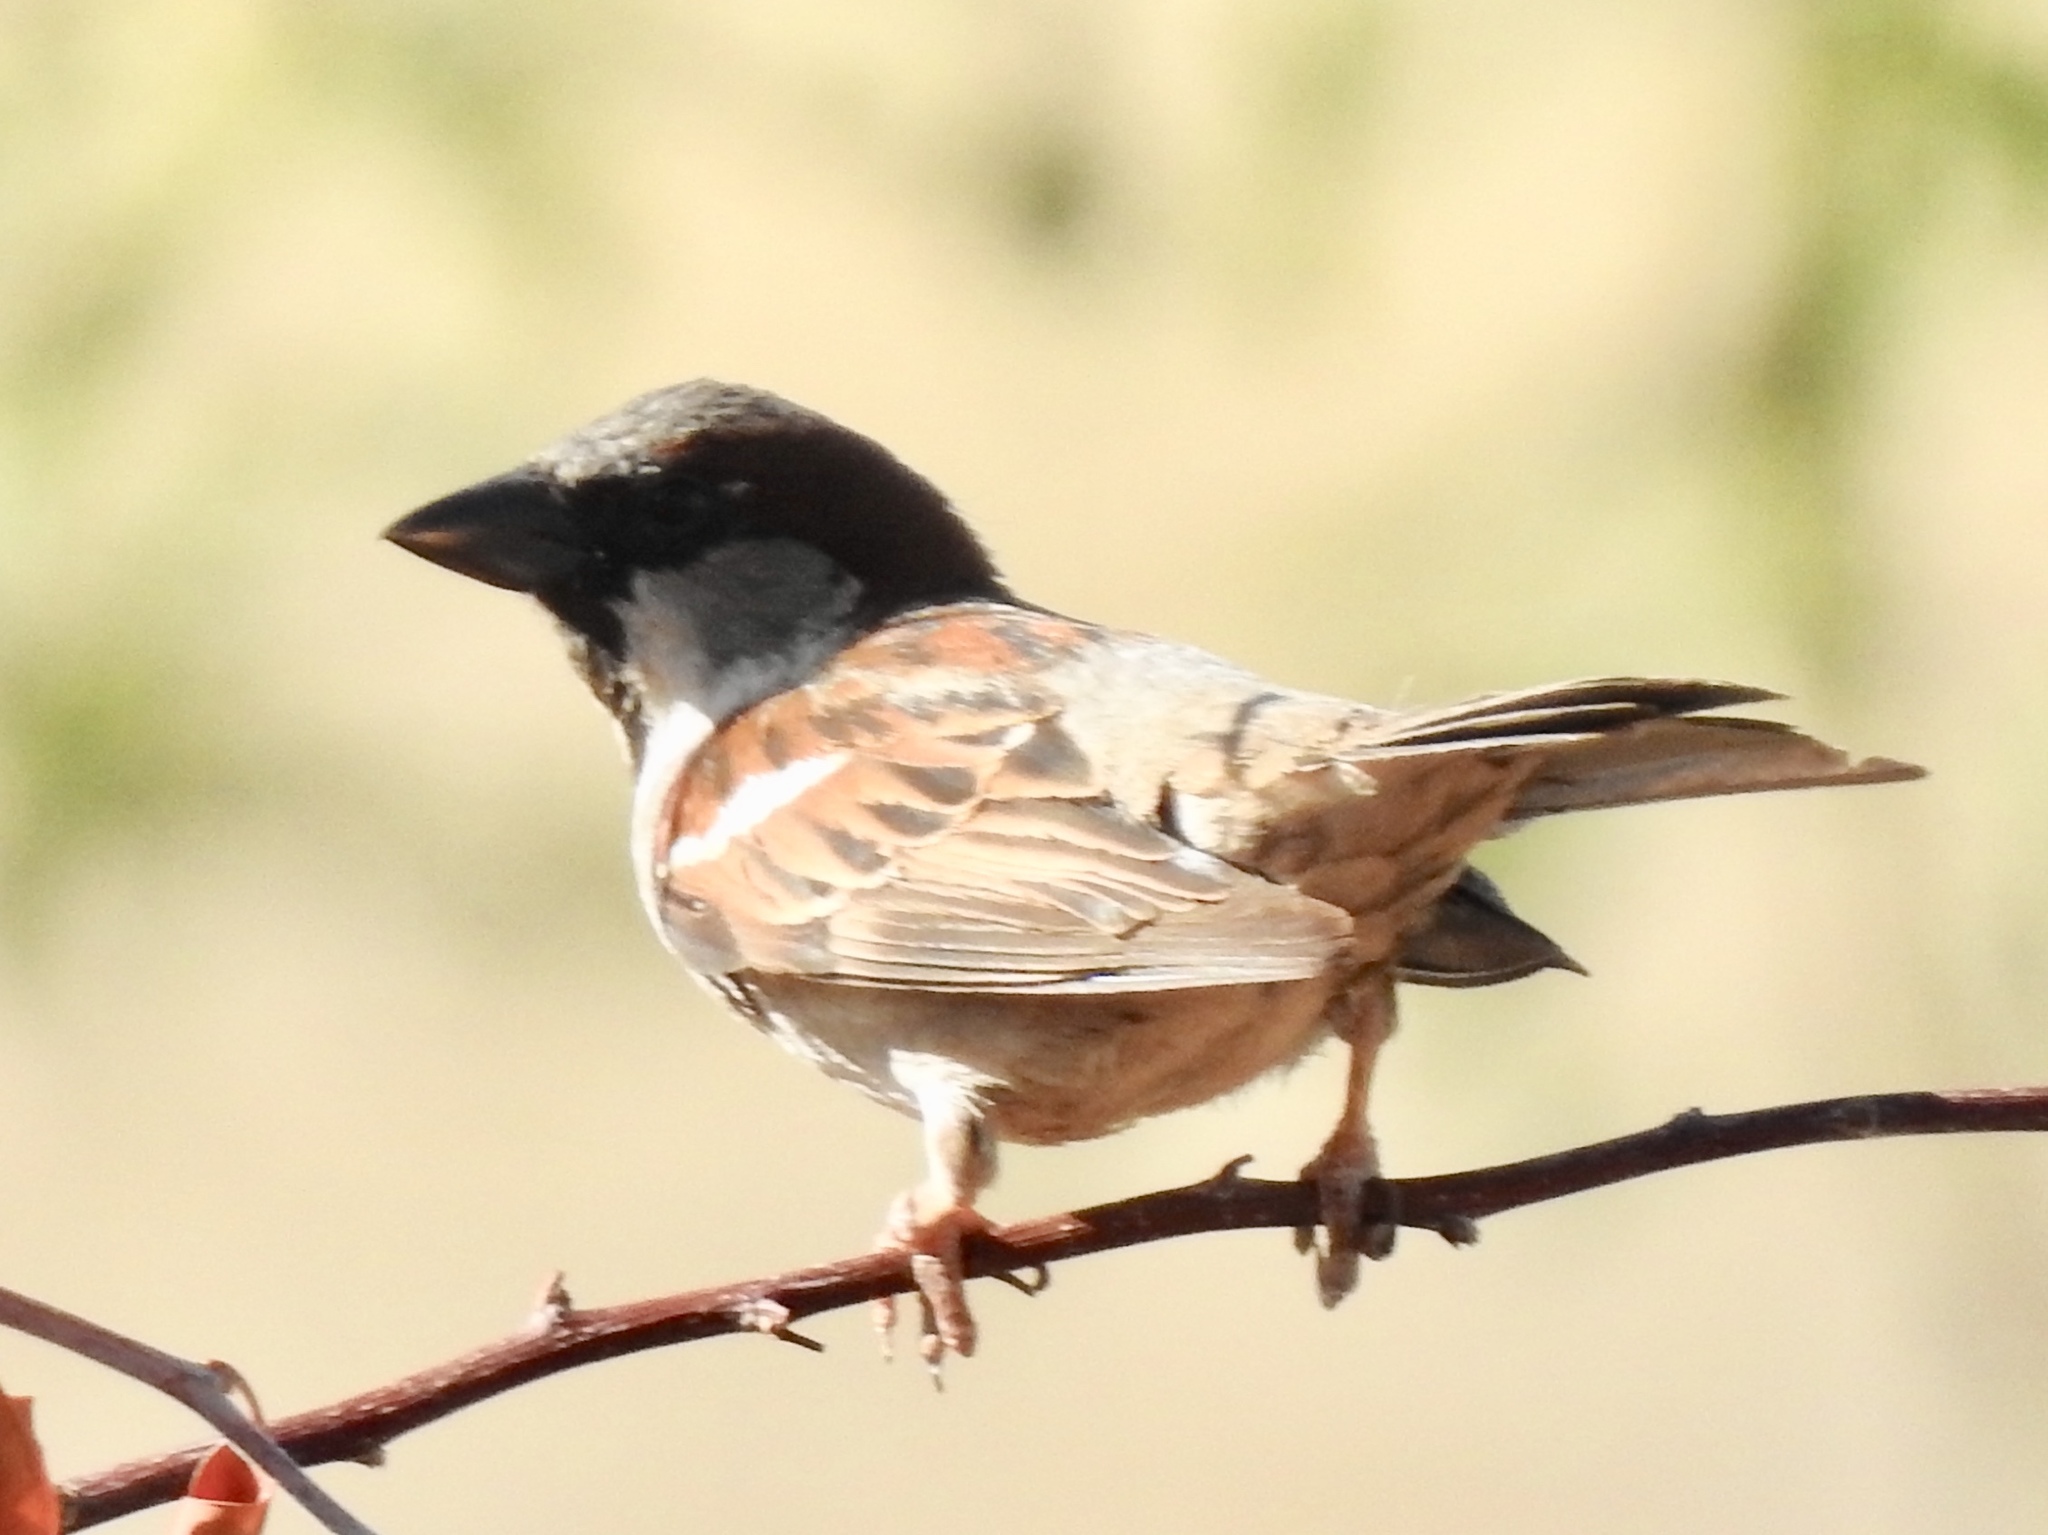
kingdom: Animalia
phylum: Chordata
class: Aves
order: Passeriformes
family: Passeridae
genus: Passer
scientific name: Passer domesticus
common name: House sparrow
